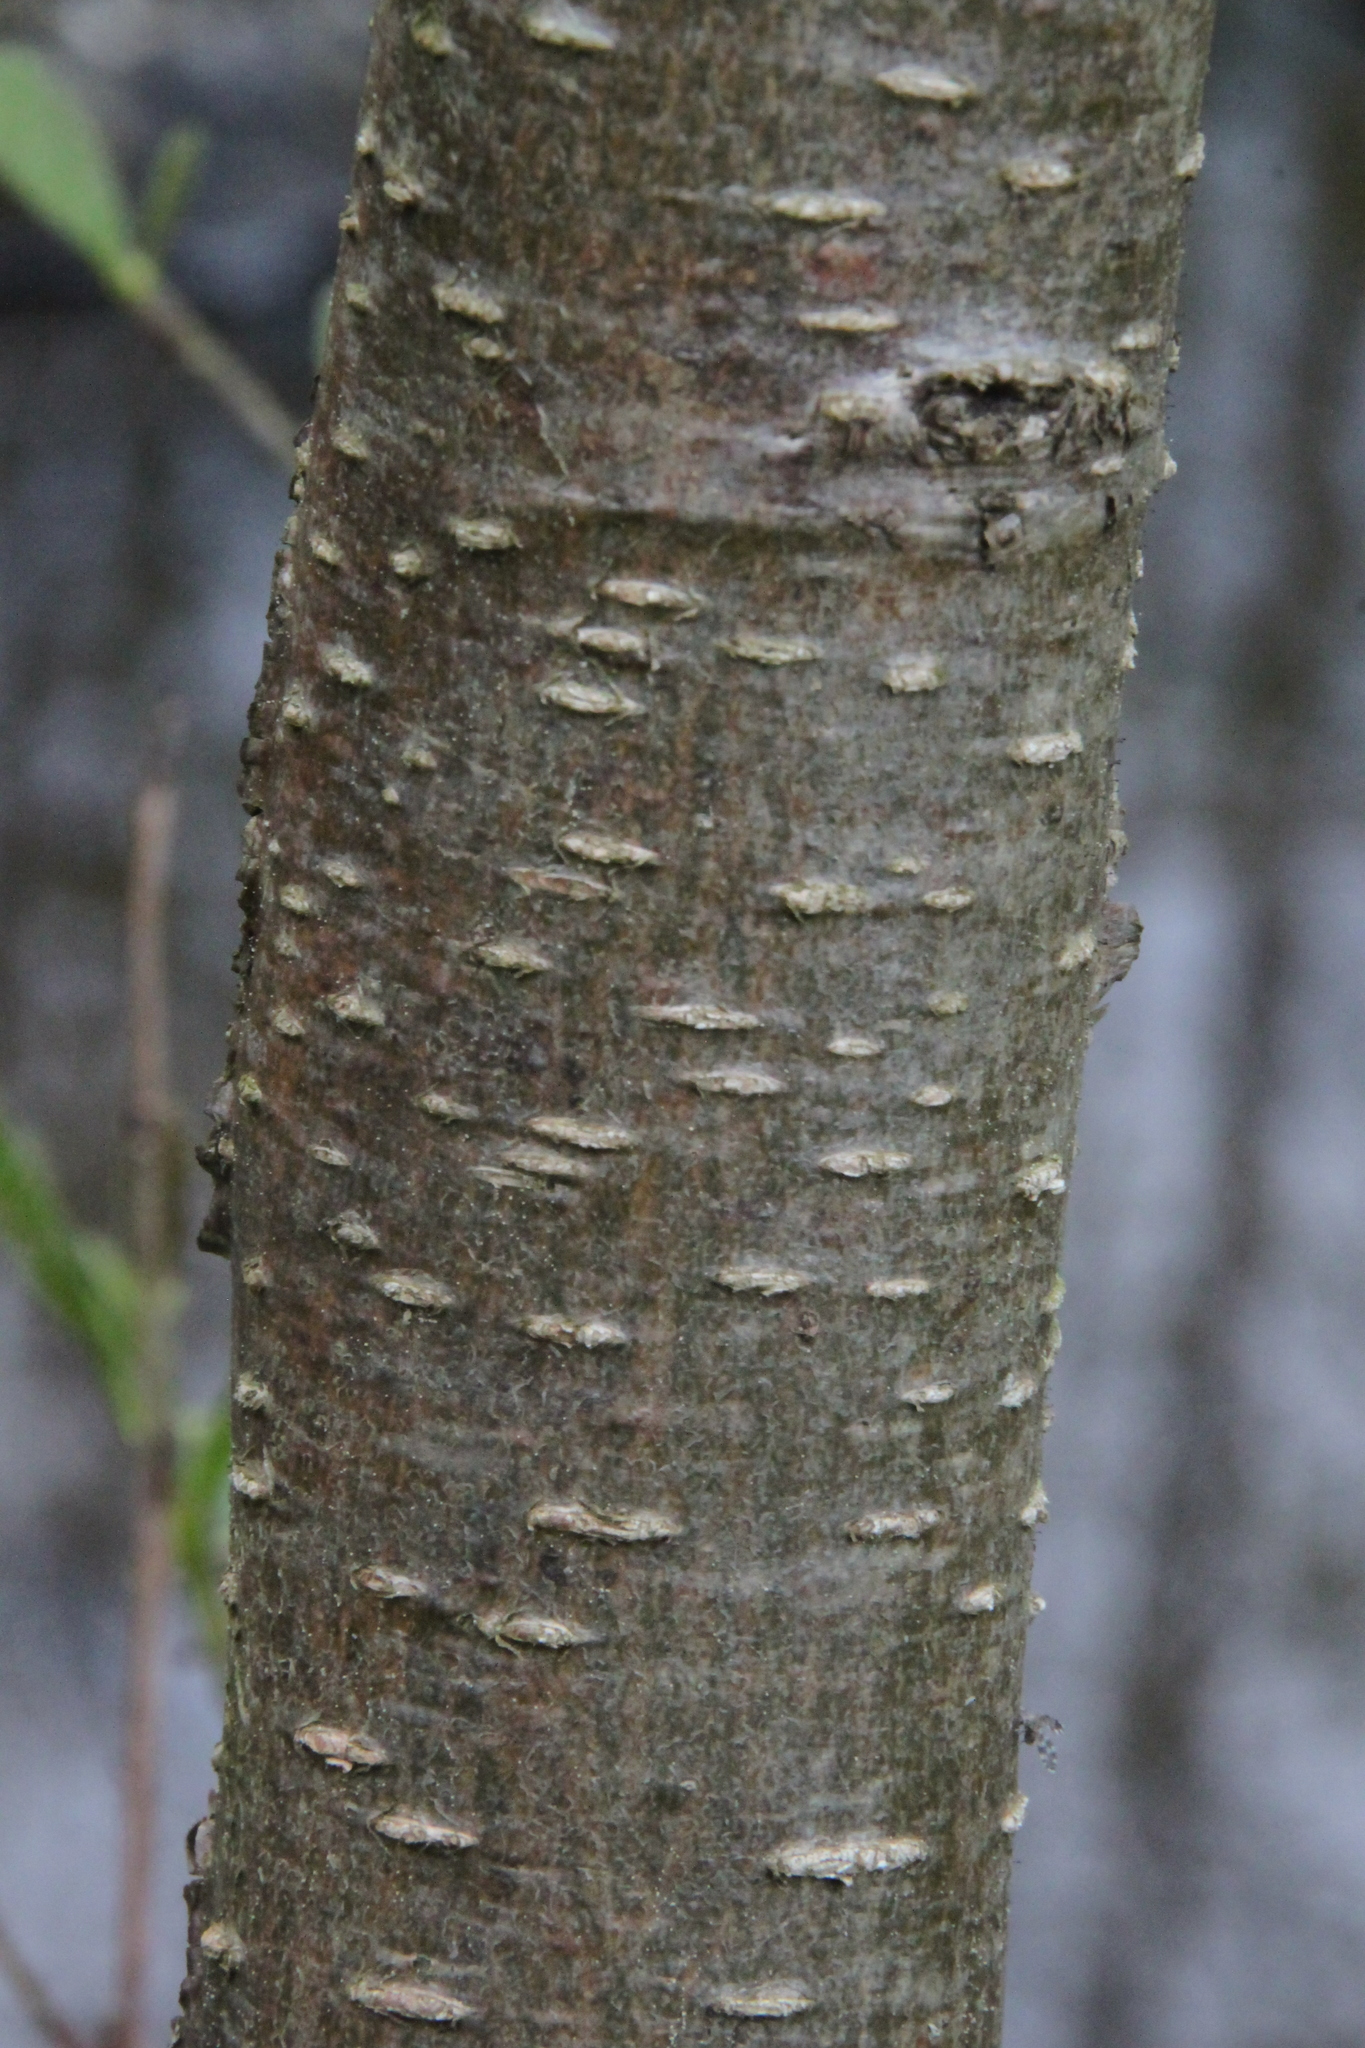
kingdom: Plantae
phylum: Tracheophyta
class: Magnoliopsida
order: Fagales
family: Betulaceae
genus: Alnus
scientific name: Alnus glutinosa
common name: Black alder
